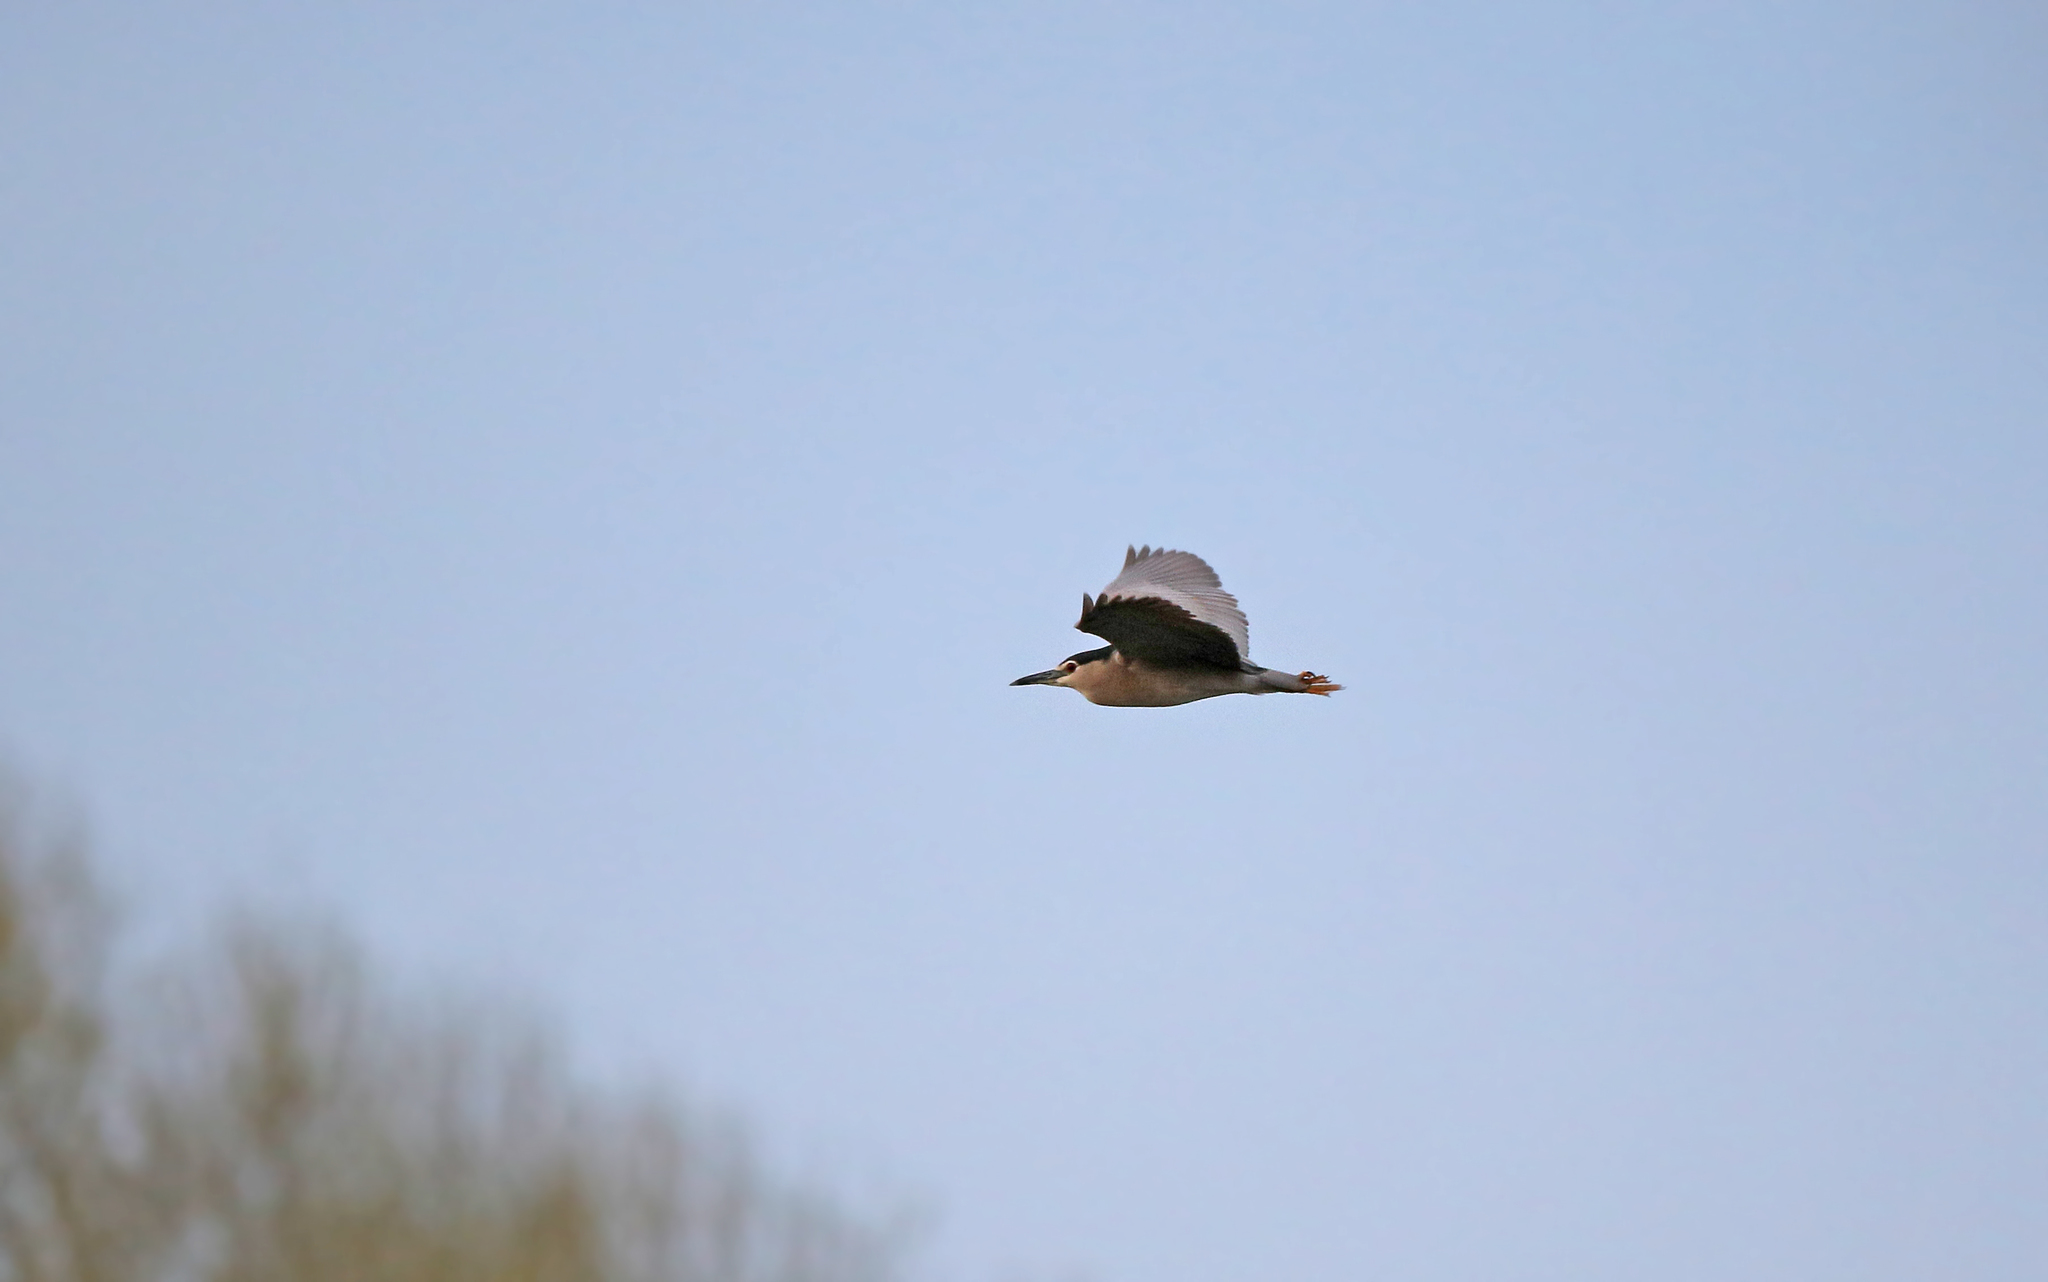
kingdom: Animalia
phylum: Chordata
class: Aves
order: Pelecaniformes
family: Ardeidae
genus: Nycticorax
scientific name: Nycticorax nycticorax
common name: Black-crowned night heron
